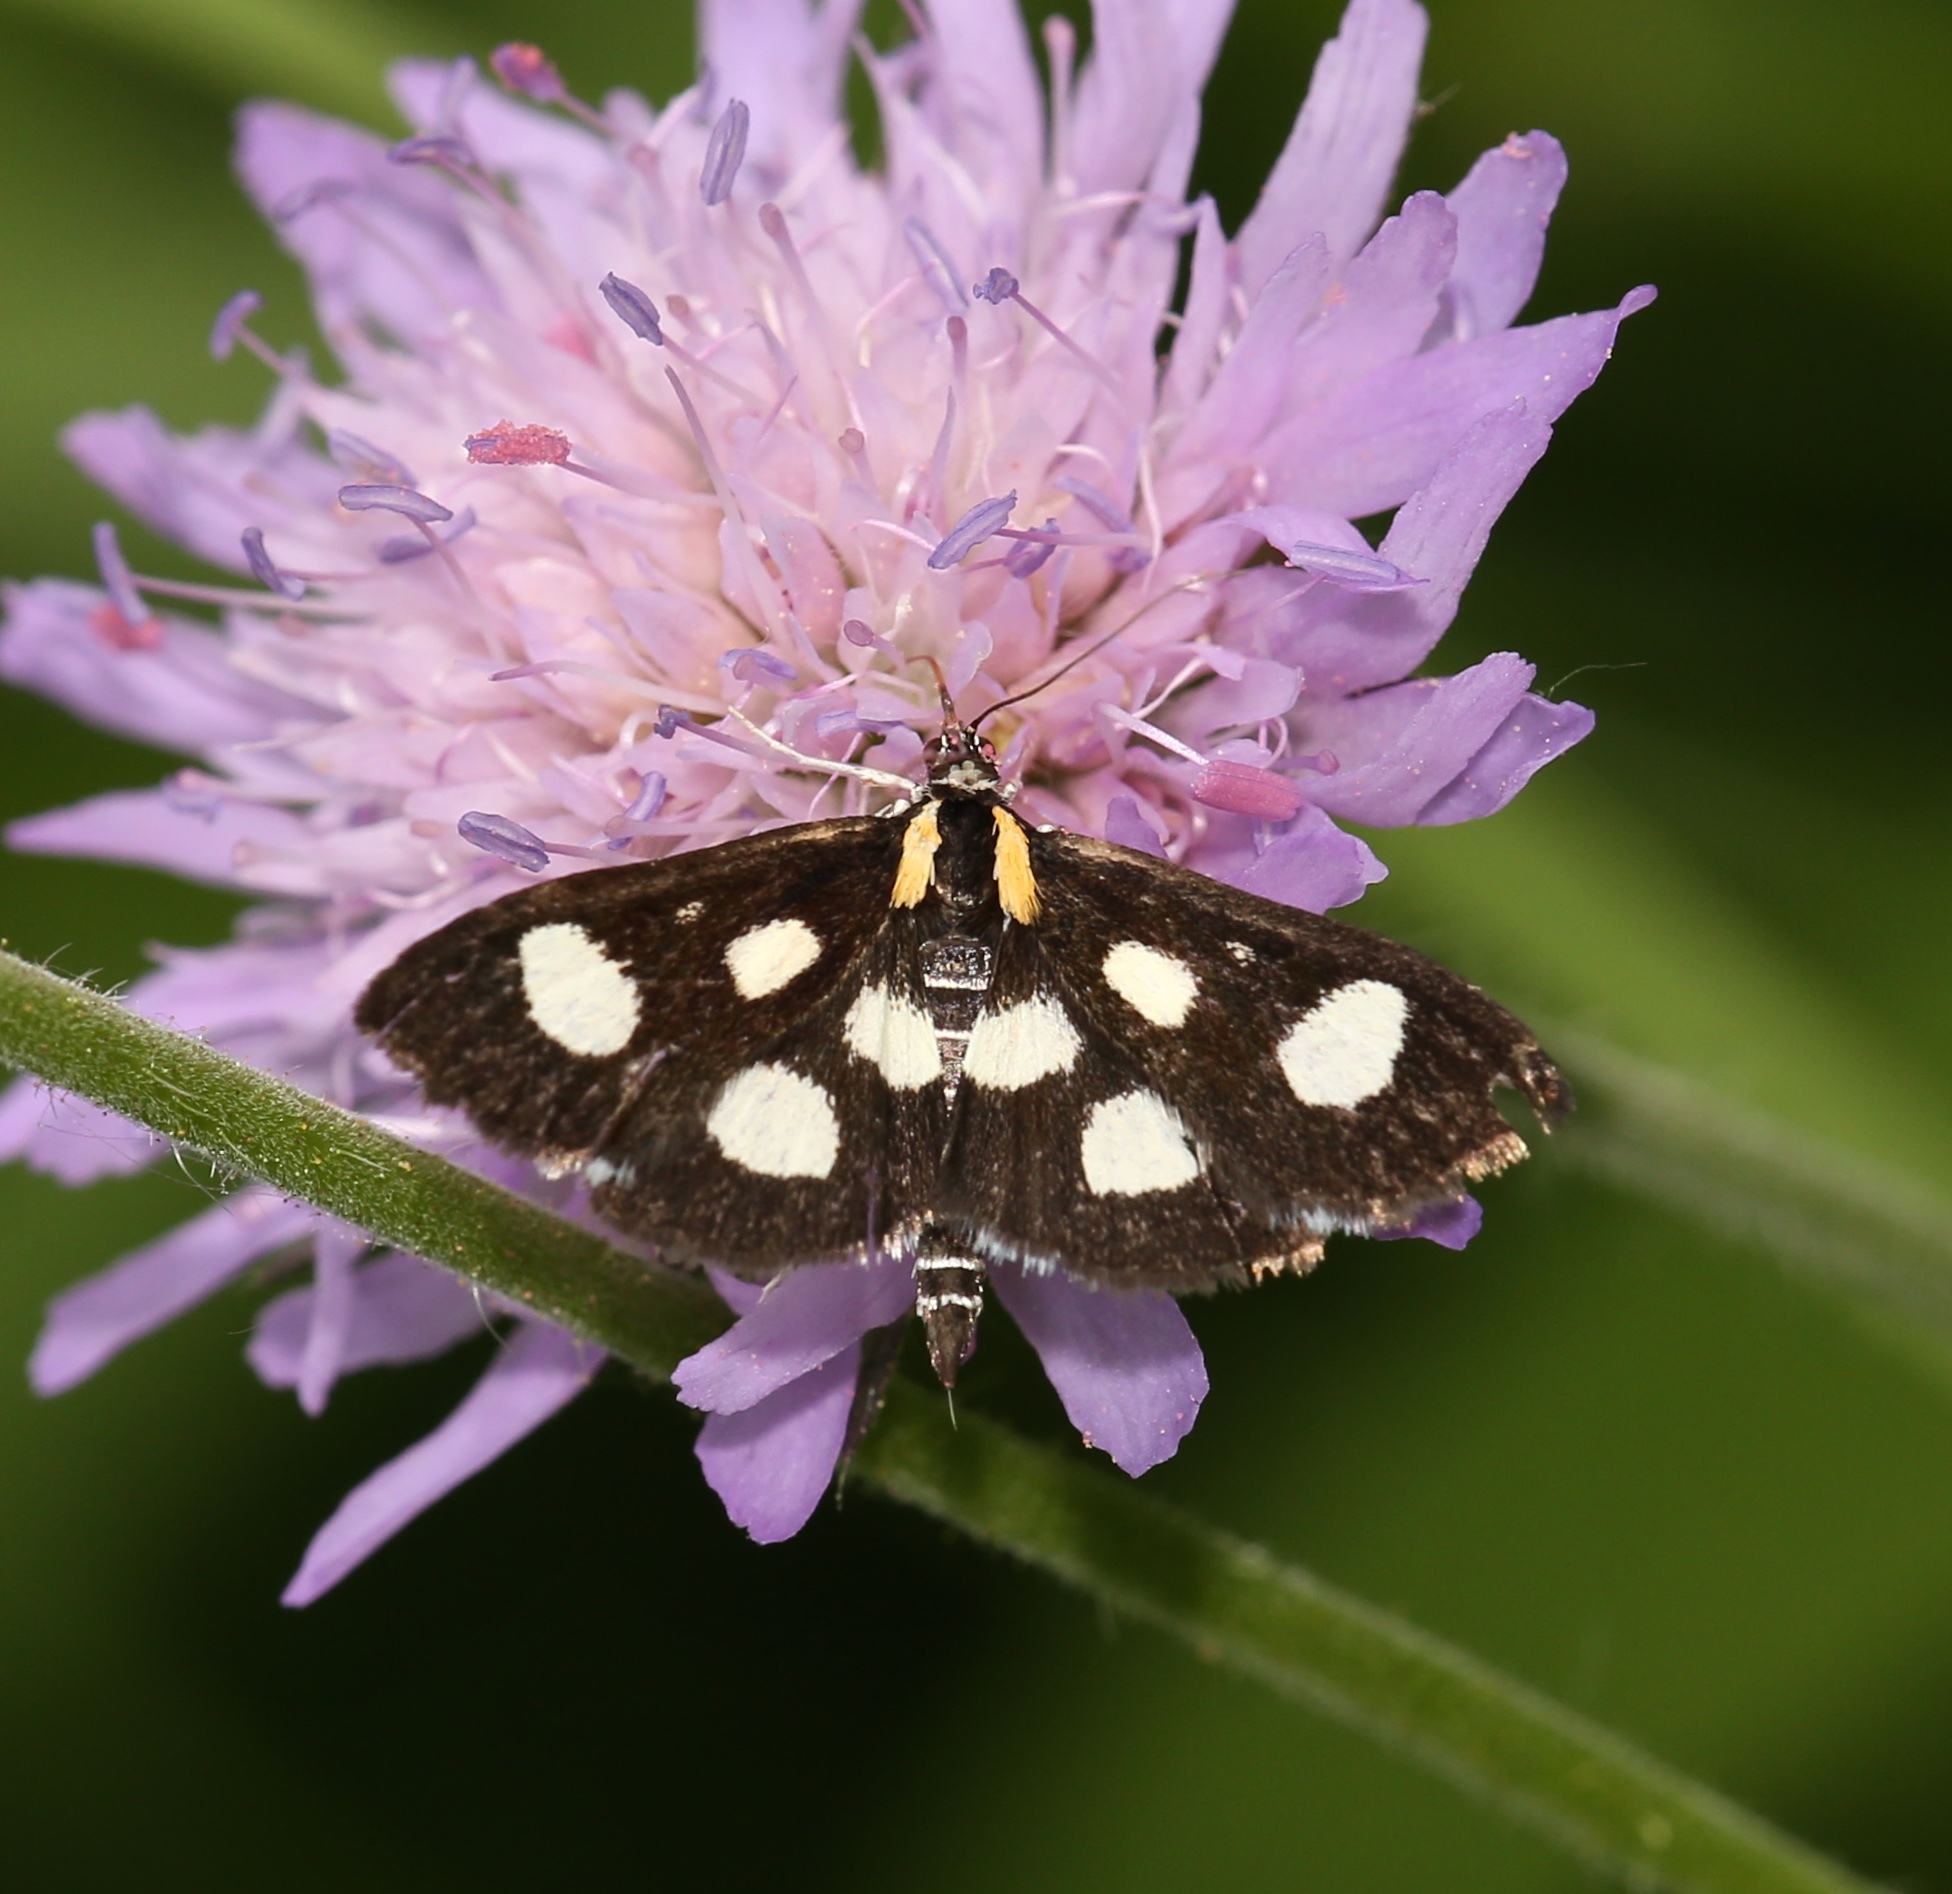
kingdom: Animalia
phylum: Arthropoda
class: Insecta
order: Lepidoptera
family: Crambidae
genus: Anania
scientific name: Anania funebris
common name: White-spotted sable moth
